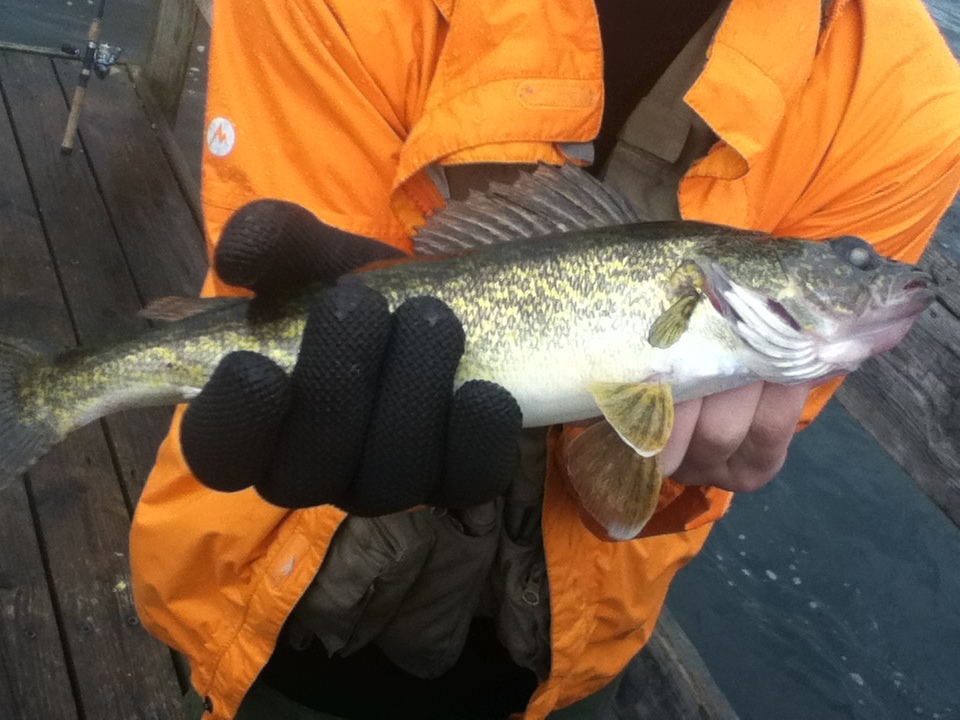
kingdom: Animalia
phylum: Chordata
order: Perciformes
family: Percidae
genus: Sander
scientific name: Sander vitreus
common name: Walleye
